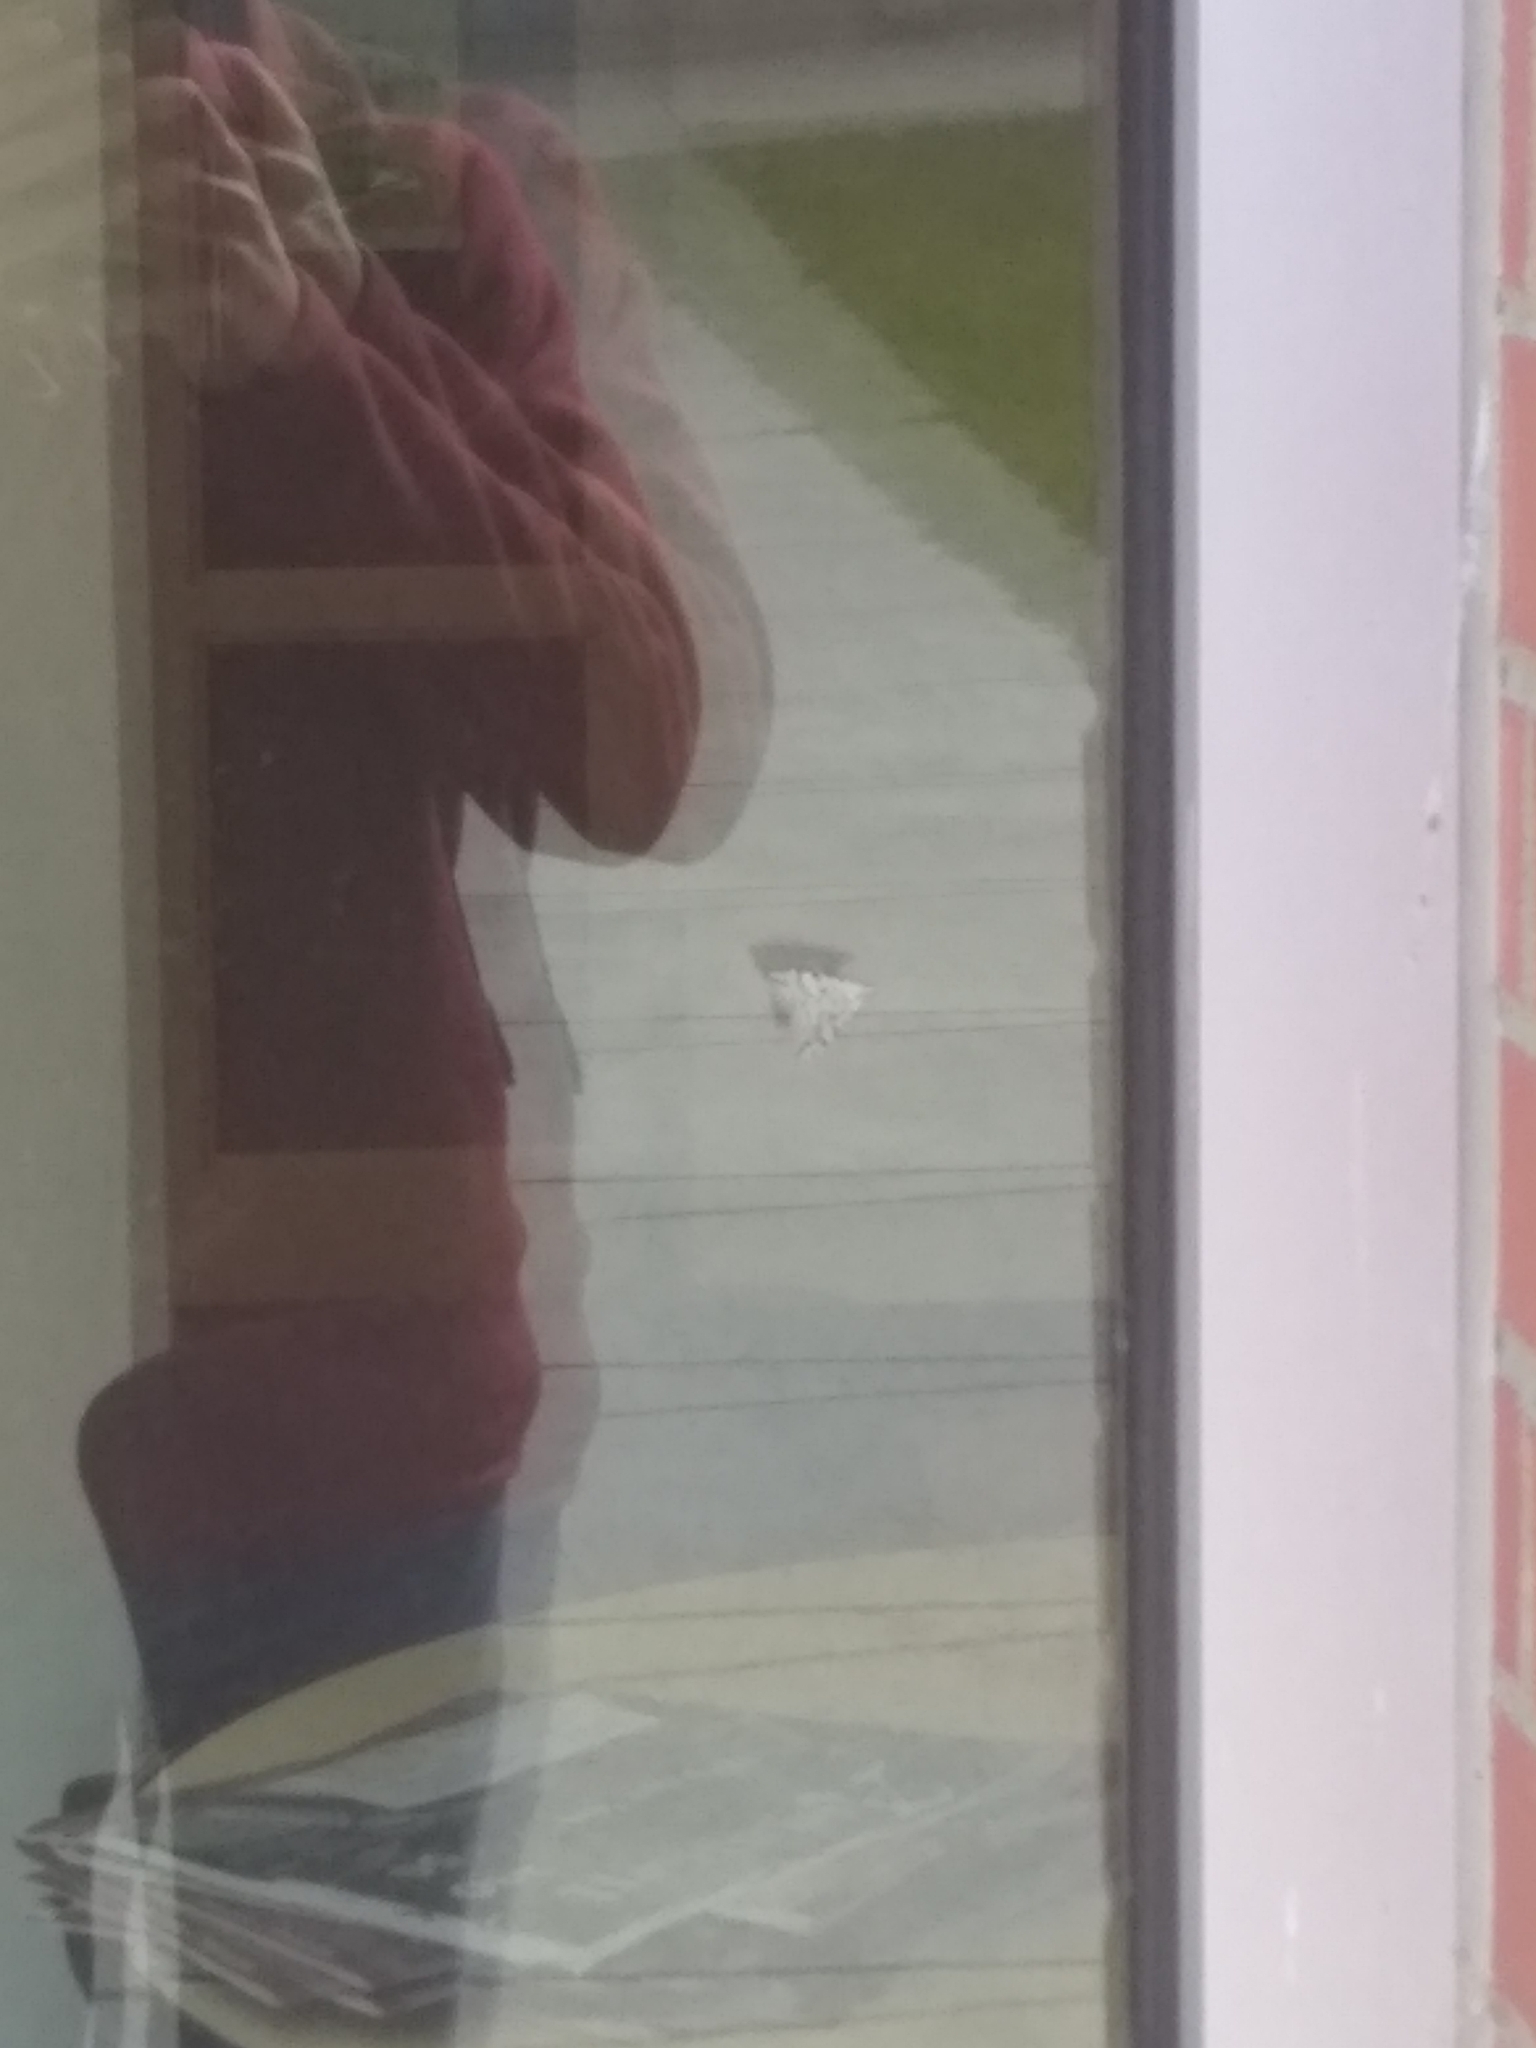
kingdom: Animalia
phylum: Arthropoda
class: Insecta
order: Lepidoptera
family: Geometridae
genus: Nepytia
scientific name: Nepytia freemani
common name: Western false hemlock looper
